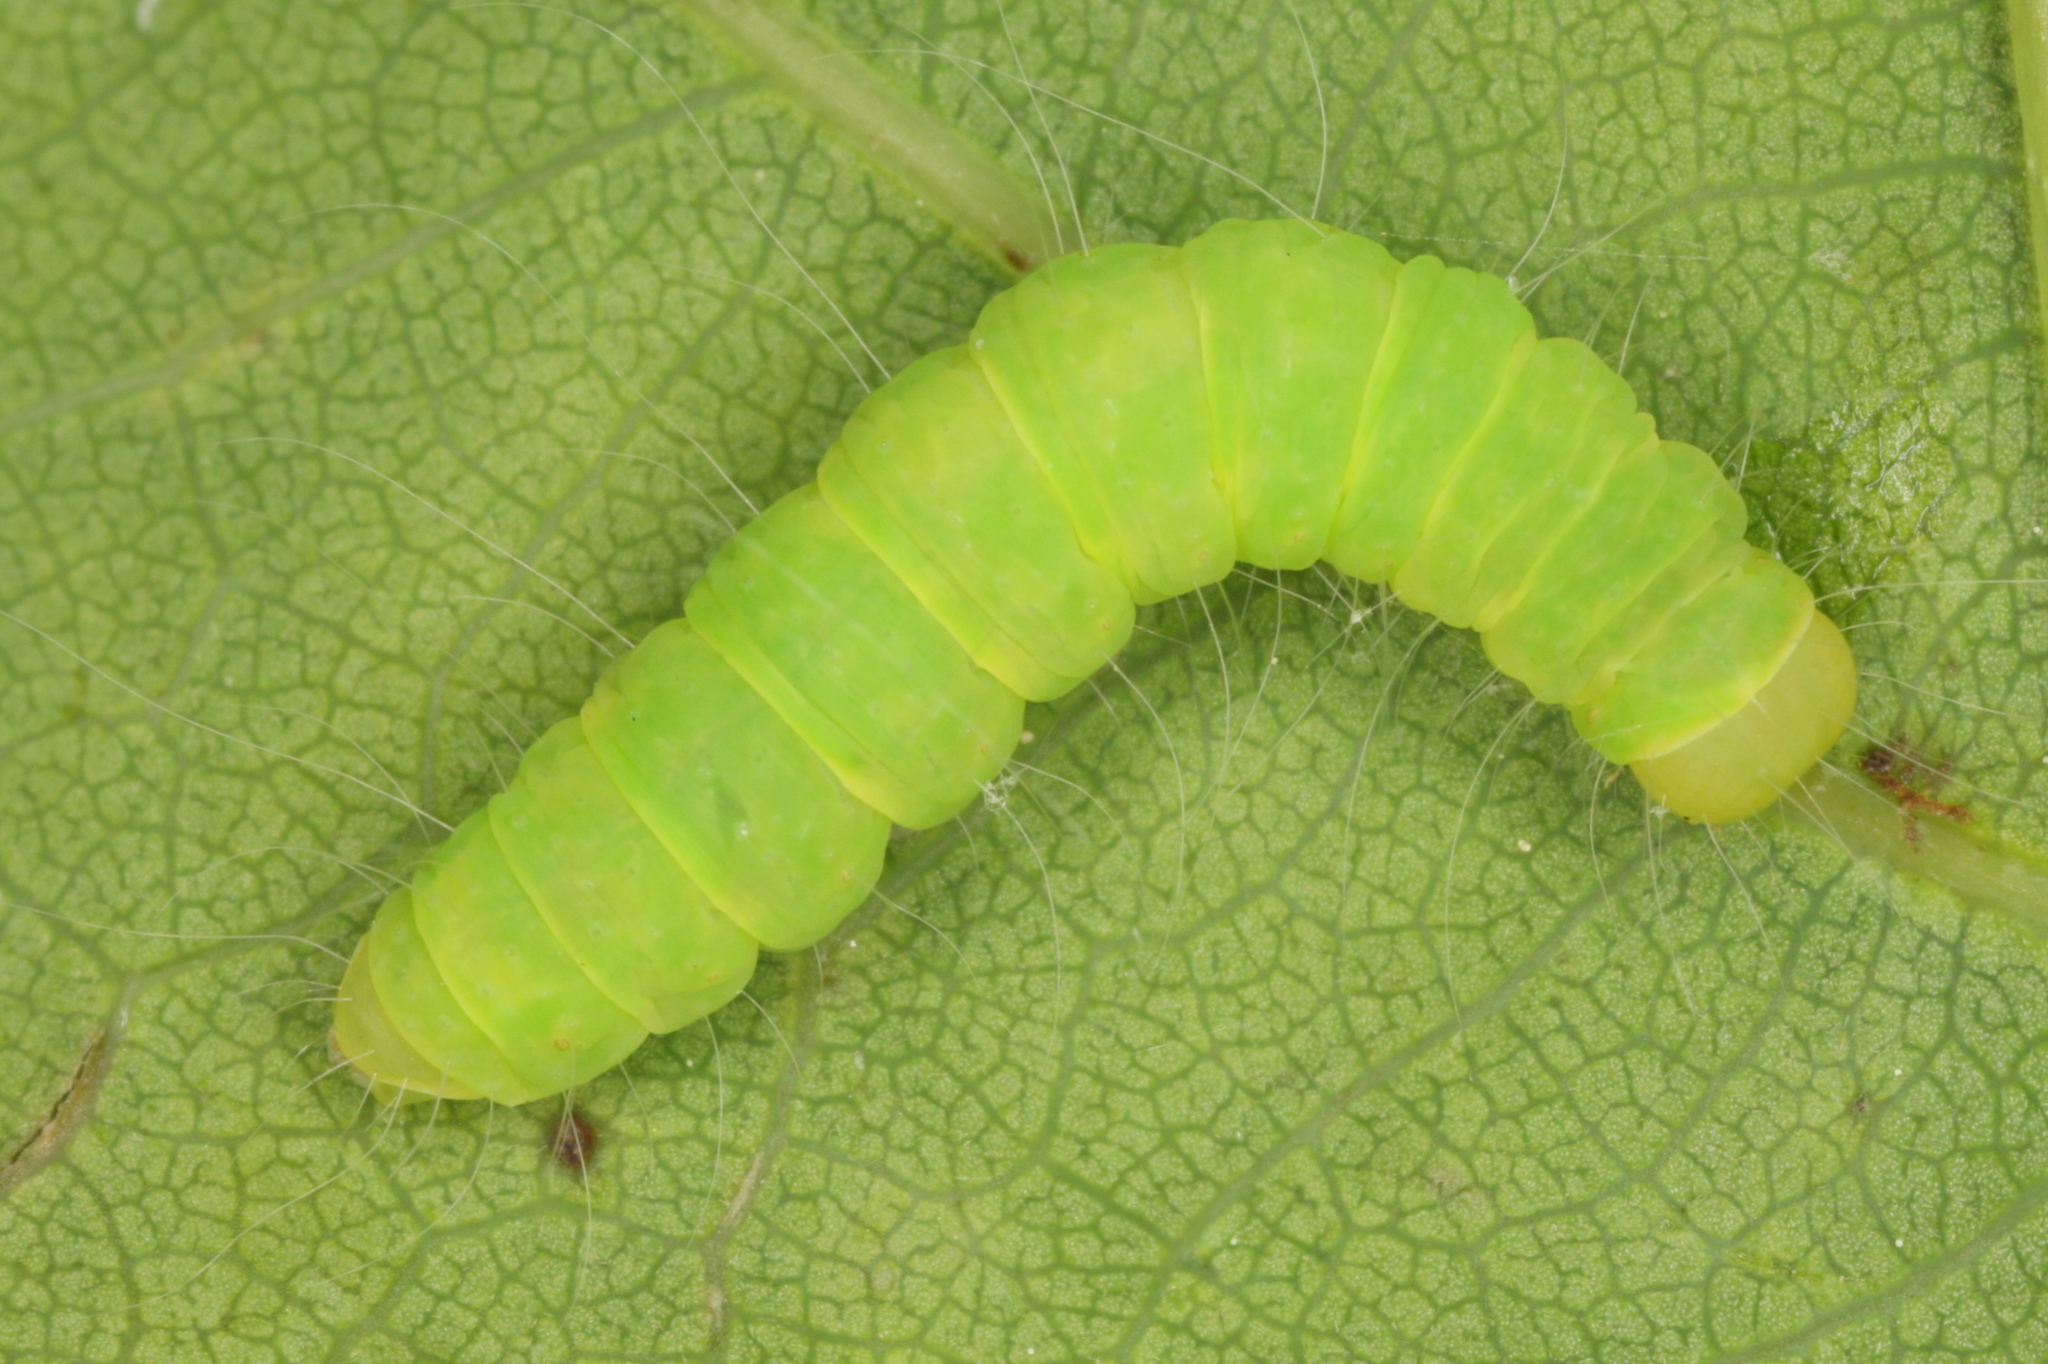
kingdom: Animalia
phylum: Arthropoda
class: Insecta
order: Lepidoptera
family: Nolidae
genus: Nycteola
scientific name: Nycteola revayana
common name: Oak nycteoline
